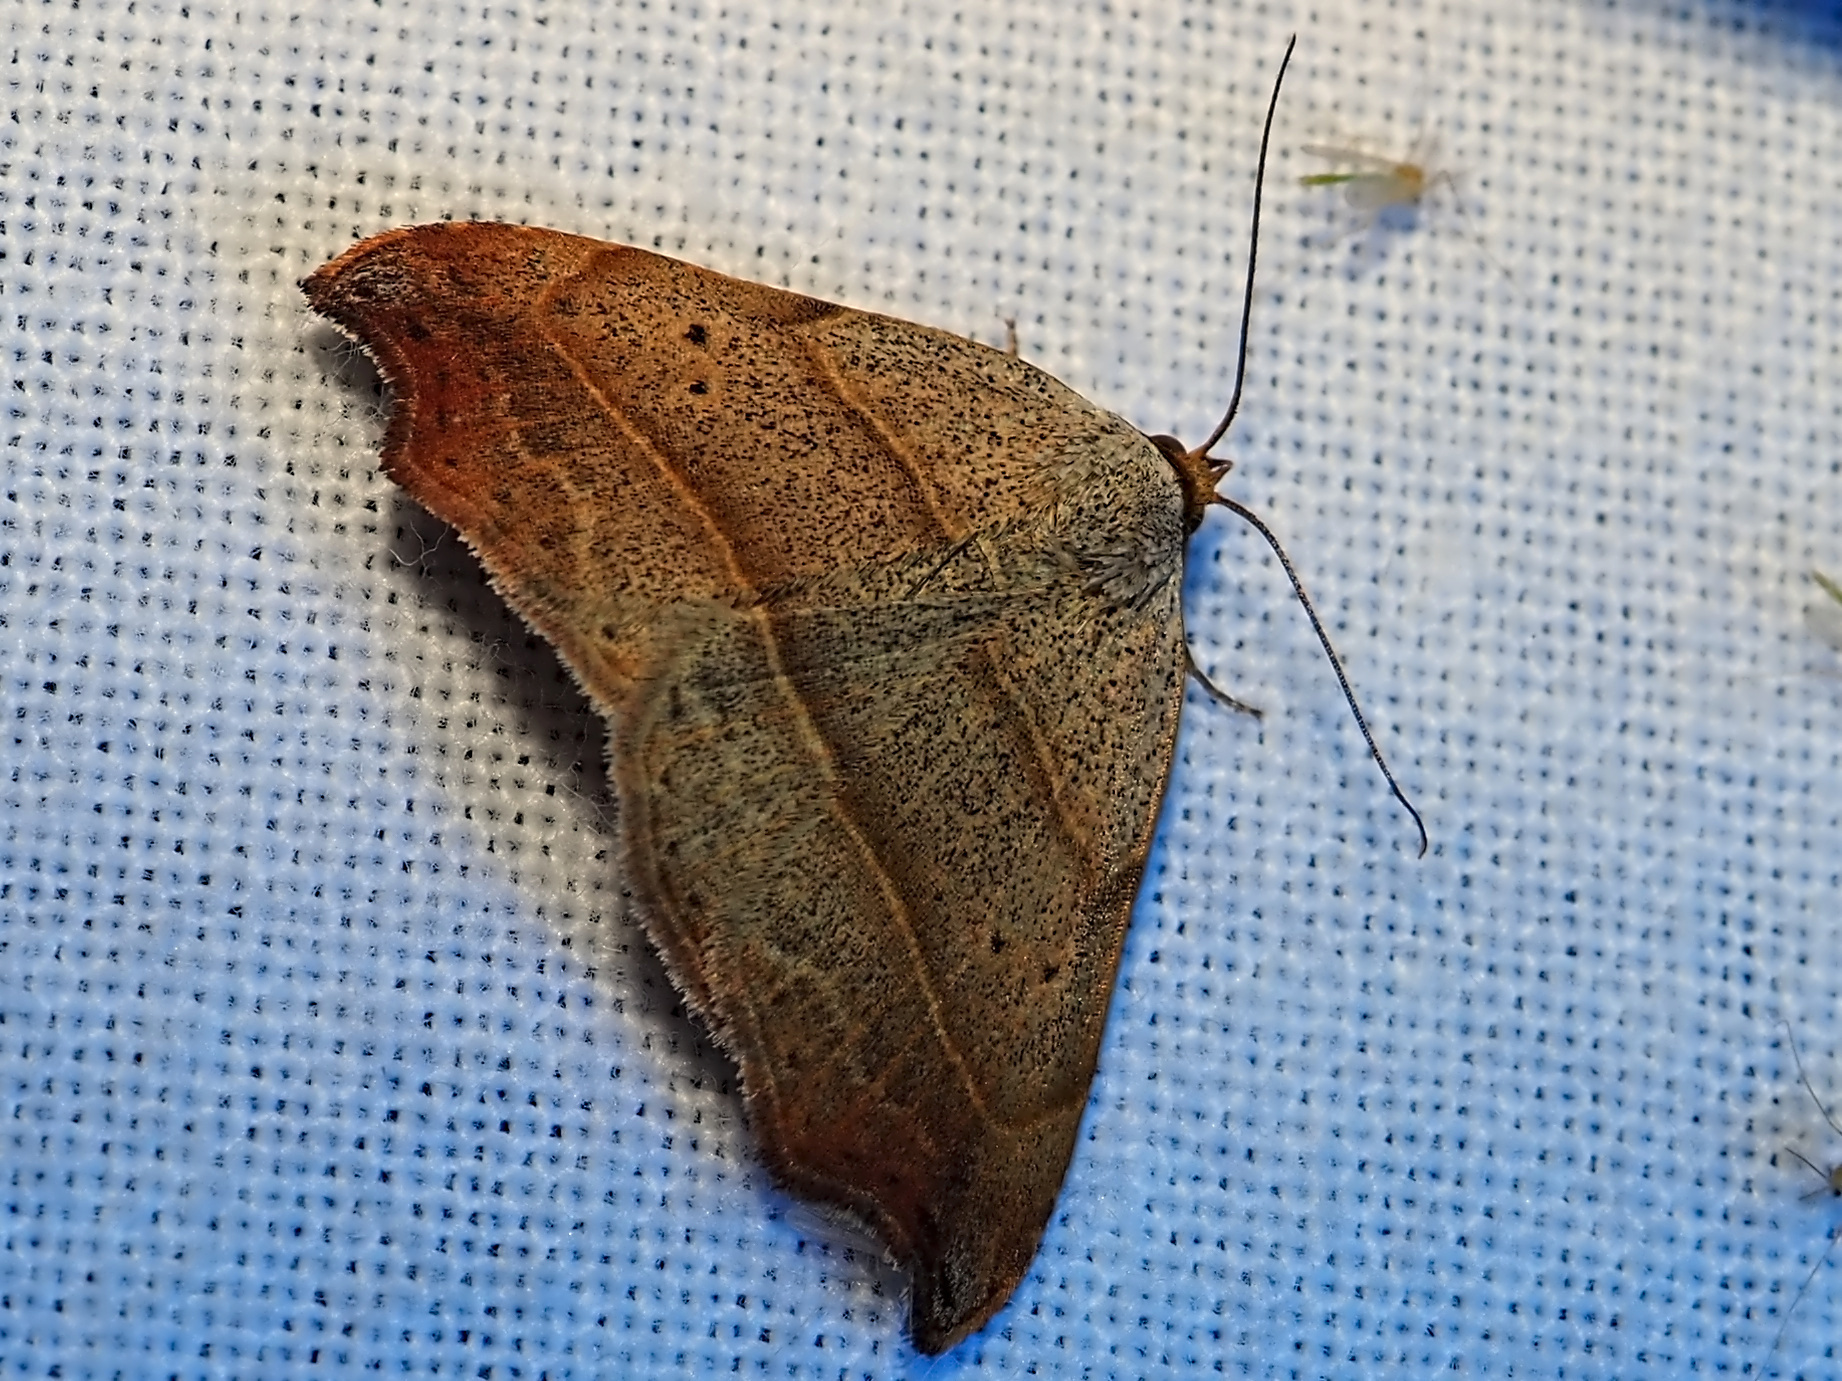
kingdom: Animalia
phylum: Arthropoda
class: Insecta
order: Lepidoptera
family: Erebidae
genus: Laspeyria
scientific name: Laspeyria flexula
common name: Beautiful hook-tip
